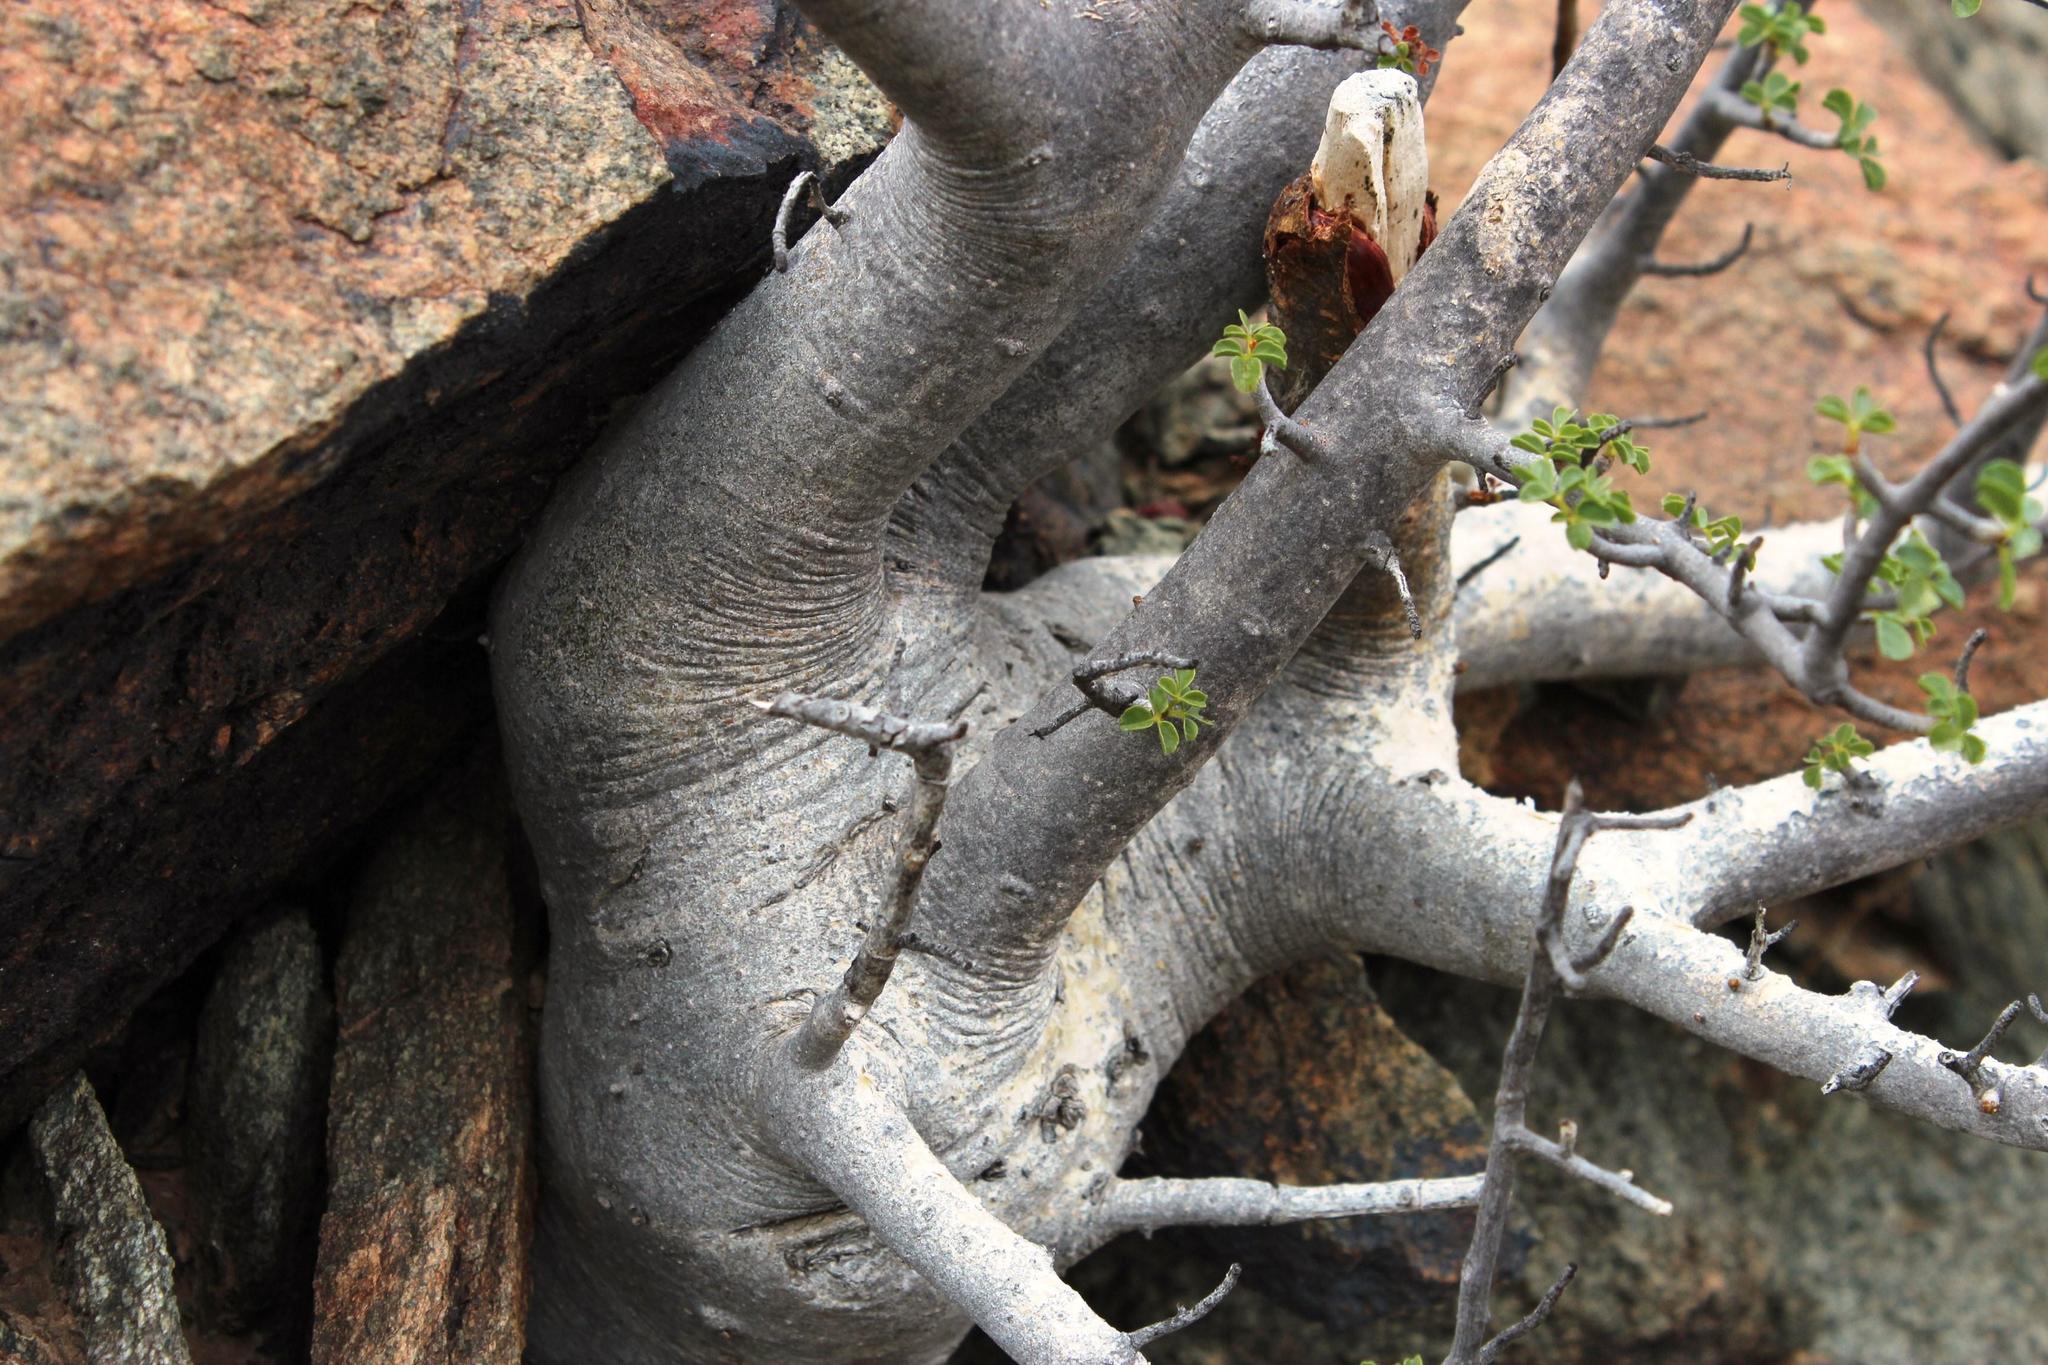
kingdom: Plantae
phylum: Tracheophyta
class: Magnoliopsida
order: Sapindales
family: Burseraceae
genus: Commiphora
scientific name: Commiphora capensis
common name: Namaqua commiphora
